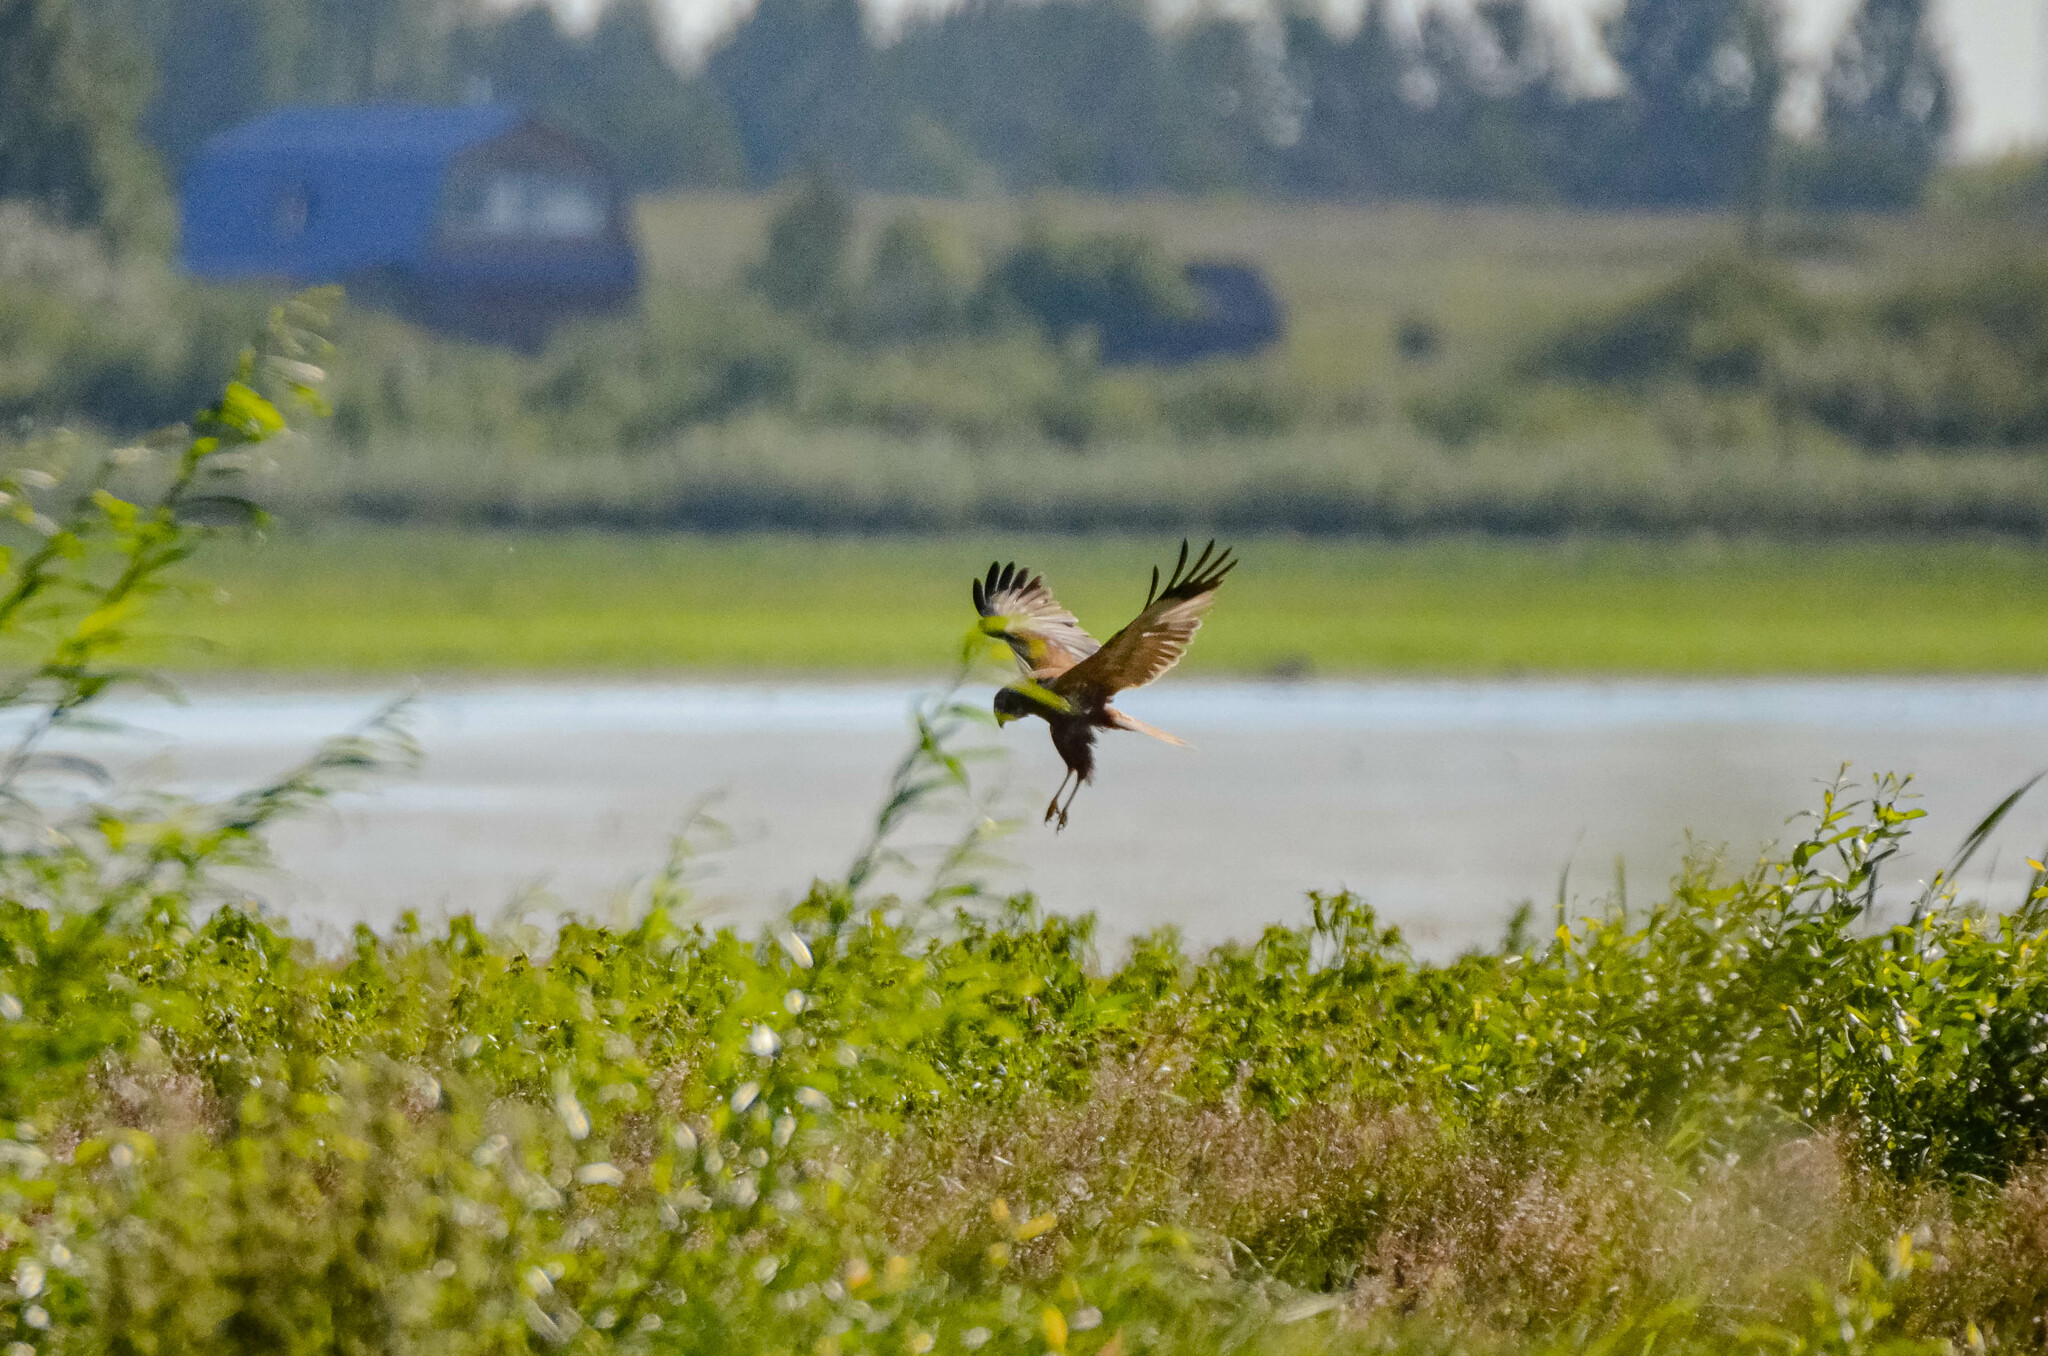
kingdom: Animalia
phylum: Chordata
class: Aves
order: Accipitriformes
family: Accipitridae
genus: Circus
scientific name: Circus aeruginosus
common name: Western marsh harrier
